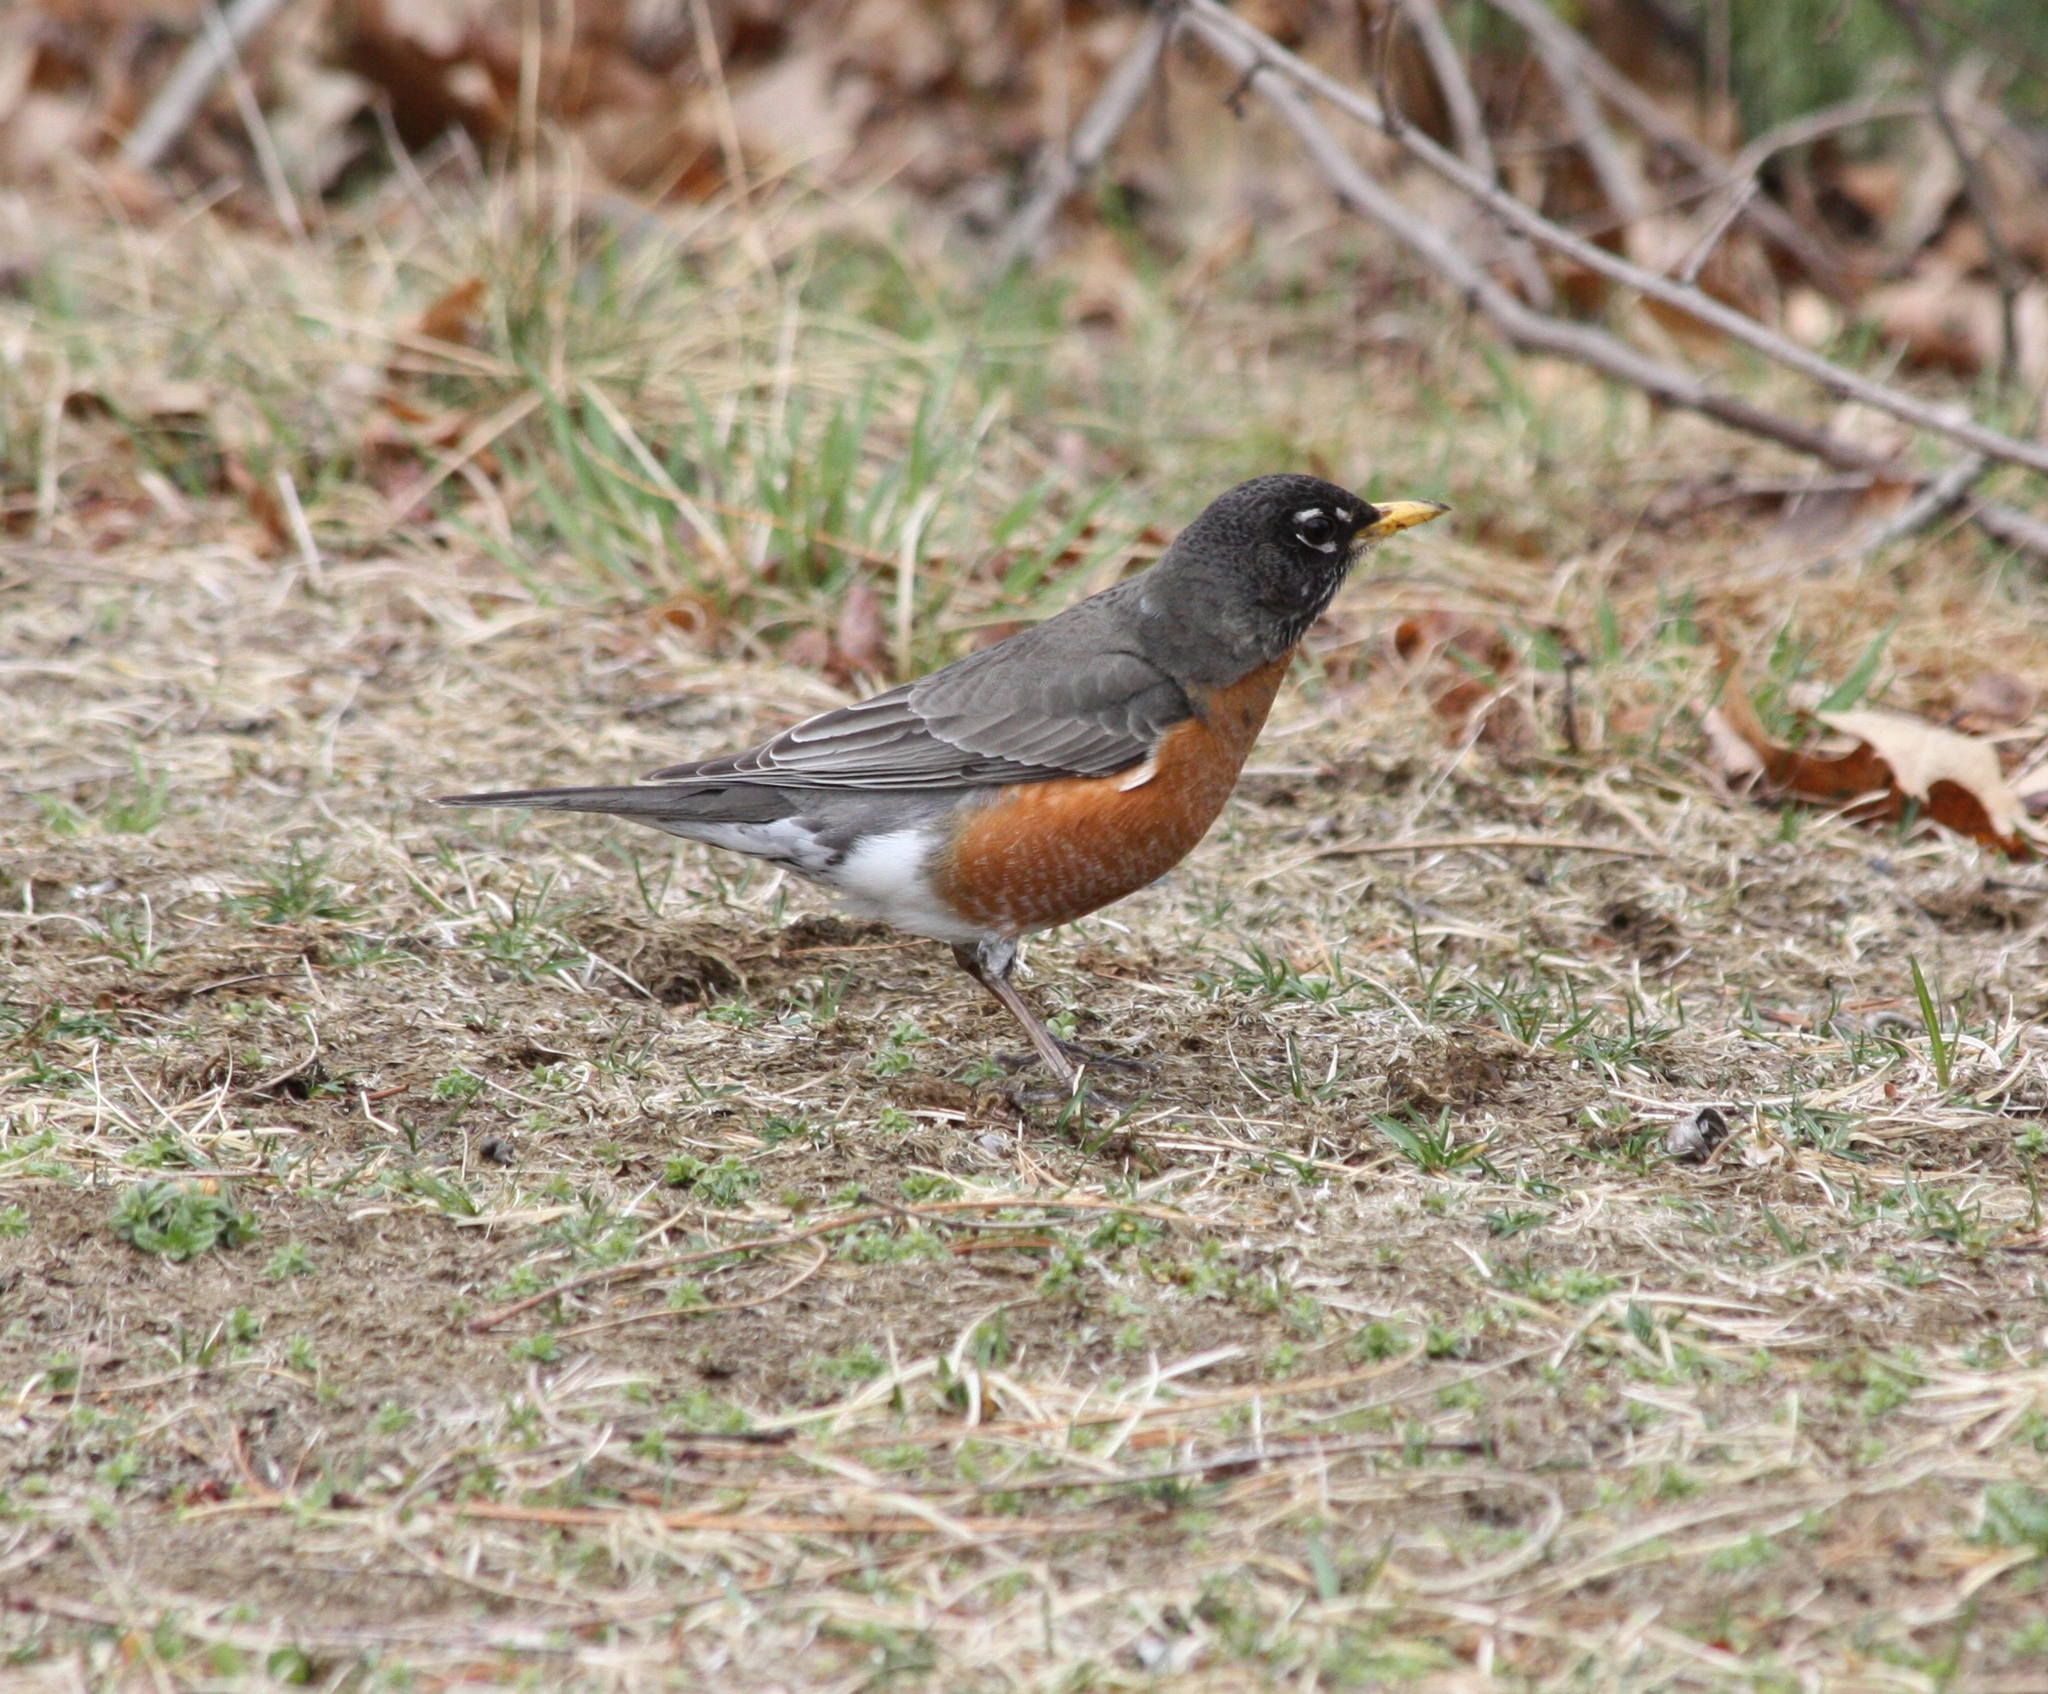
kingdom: Animalia
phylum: Chordata
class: Aves
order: Passeriformes
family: Turdidae
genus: Turdus
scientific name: Turdus migratorius
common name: American robin
